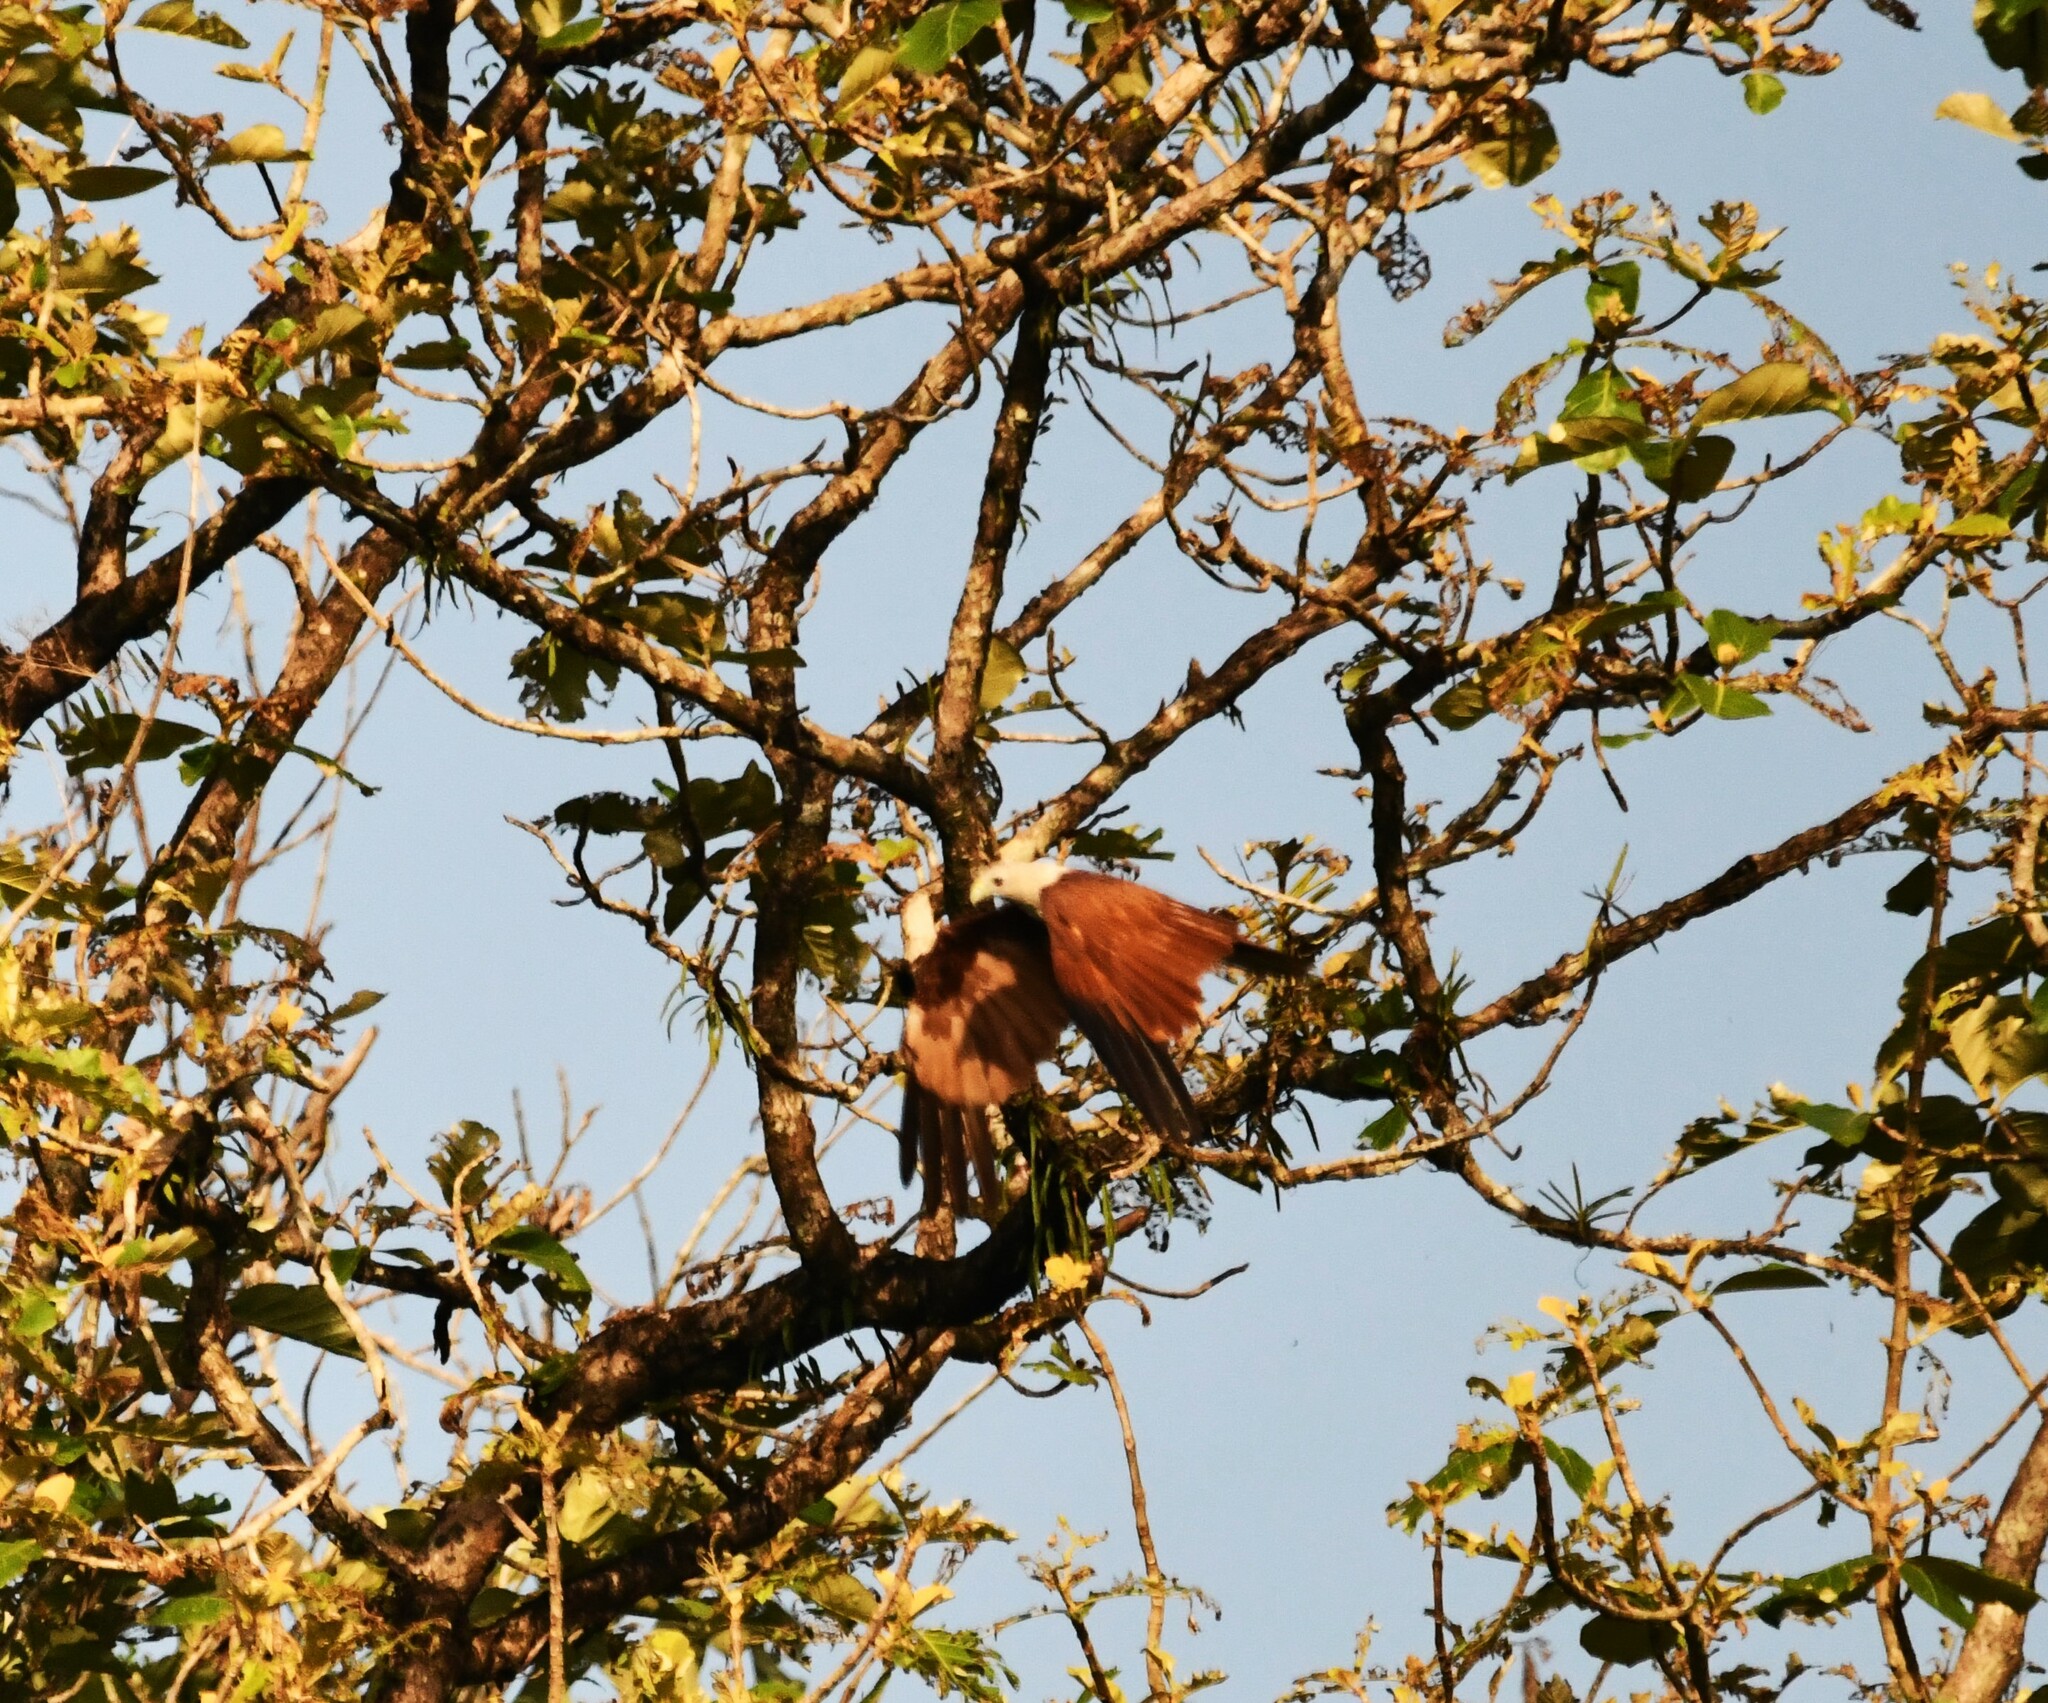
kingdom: Animalia
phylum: Chordata
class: Aves
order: Accipitriformes
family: Accipitridae
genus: Haliastur
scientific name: Haliastur indus
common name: Brahminy kite
